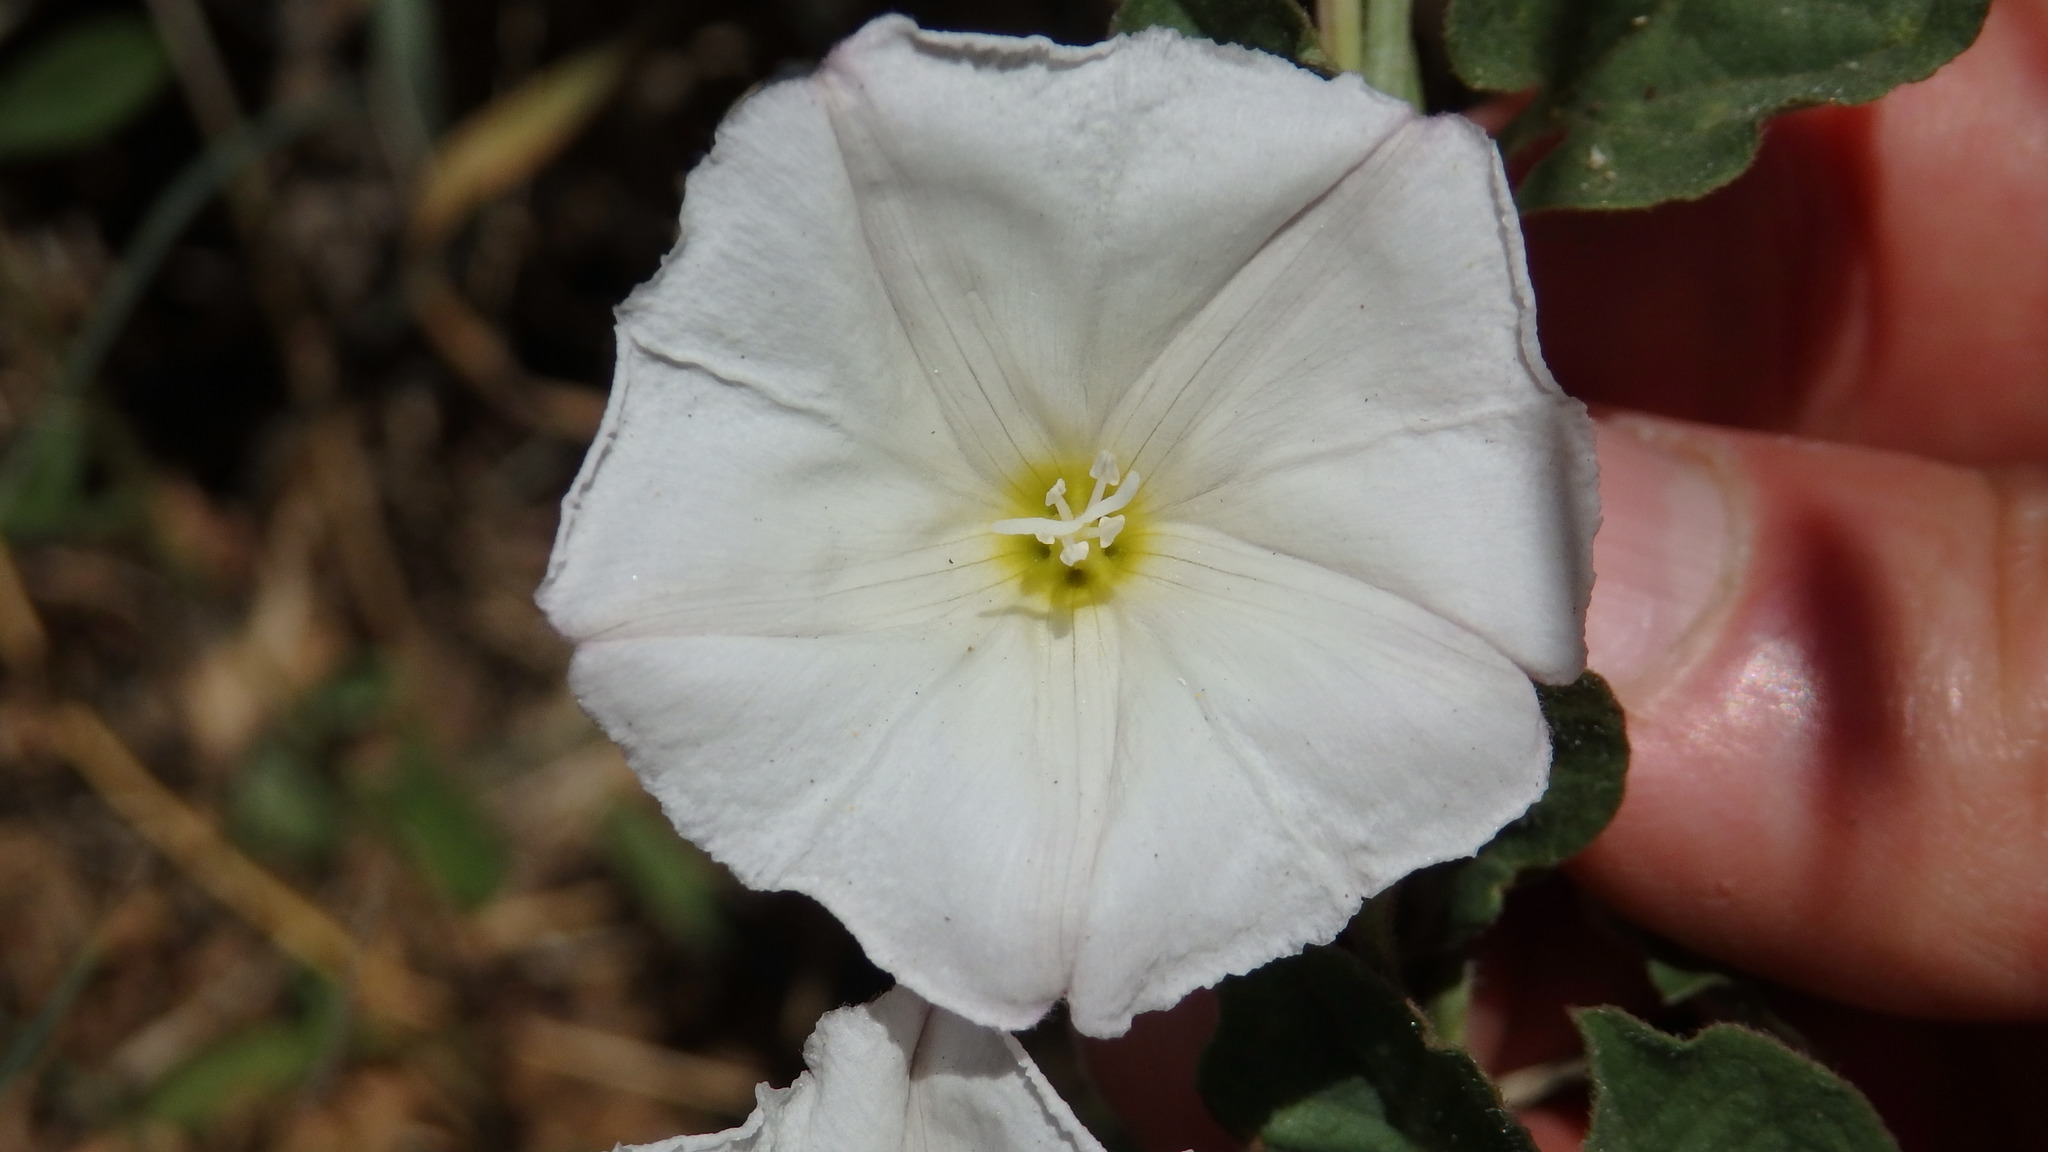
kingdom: Plantae
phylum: Tracheophyta
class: Magnoliopsida
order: Solanales
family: Convolvulaceae
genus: Convolvulus
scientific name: Convolvulus arvensis
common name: Field bindweed
